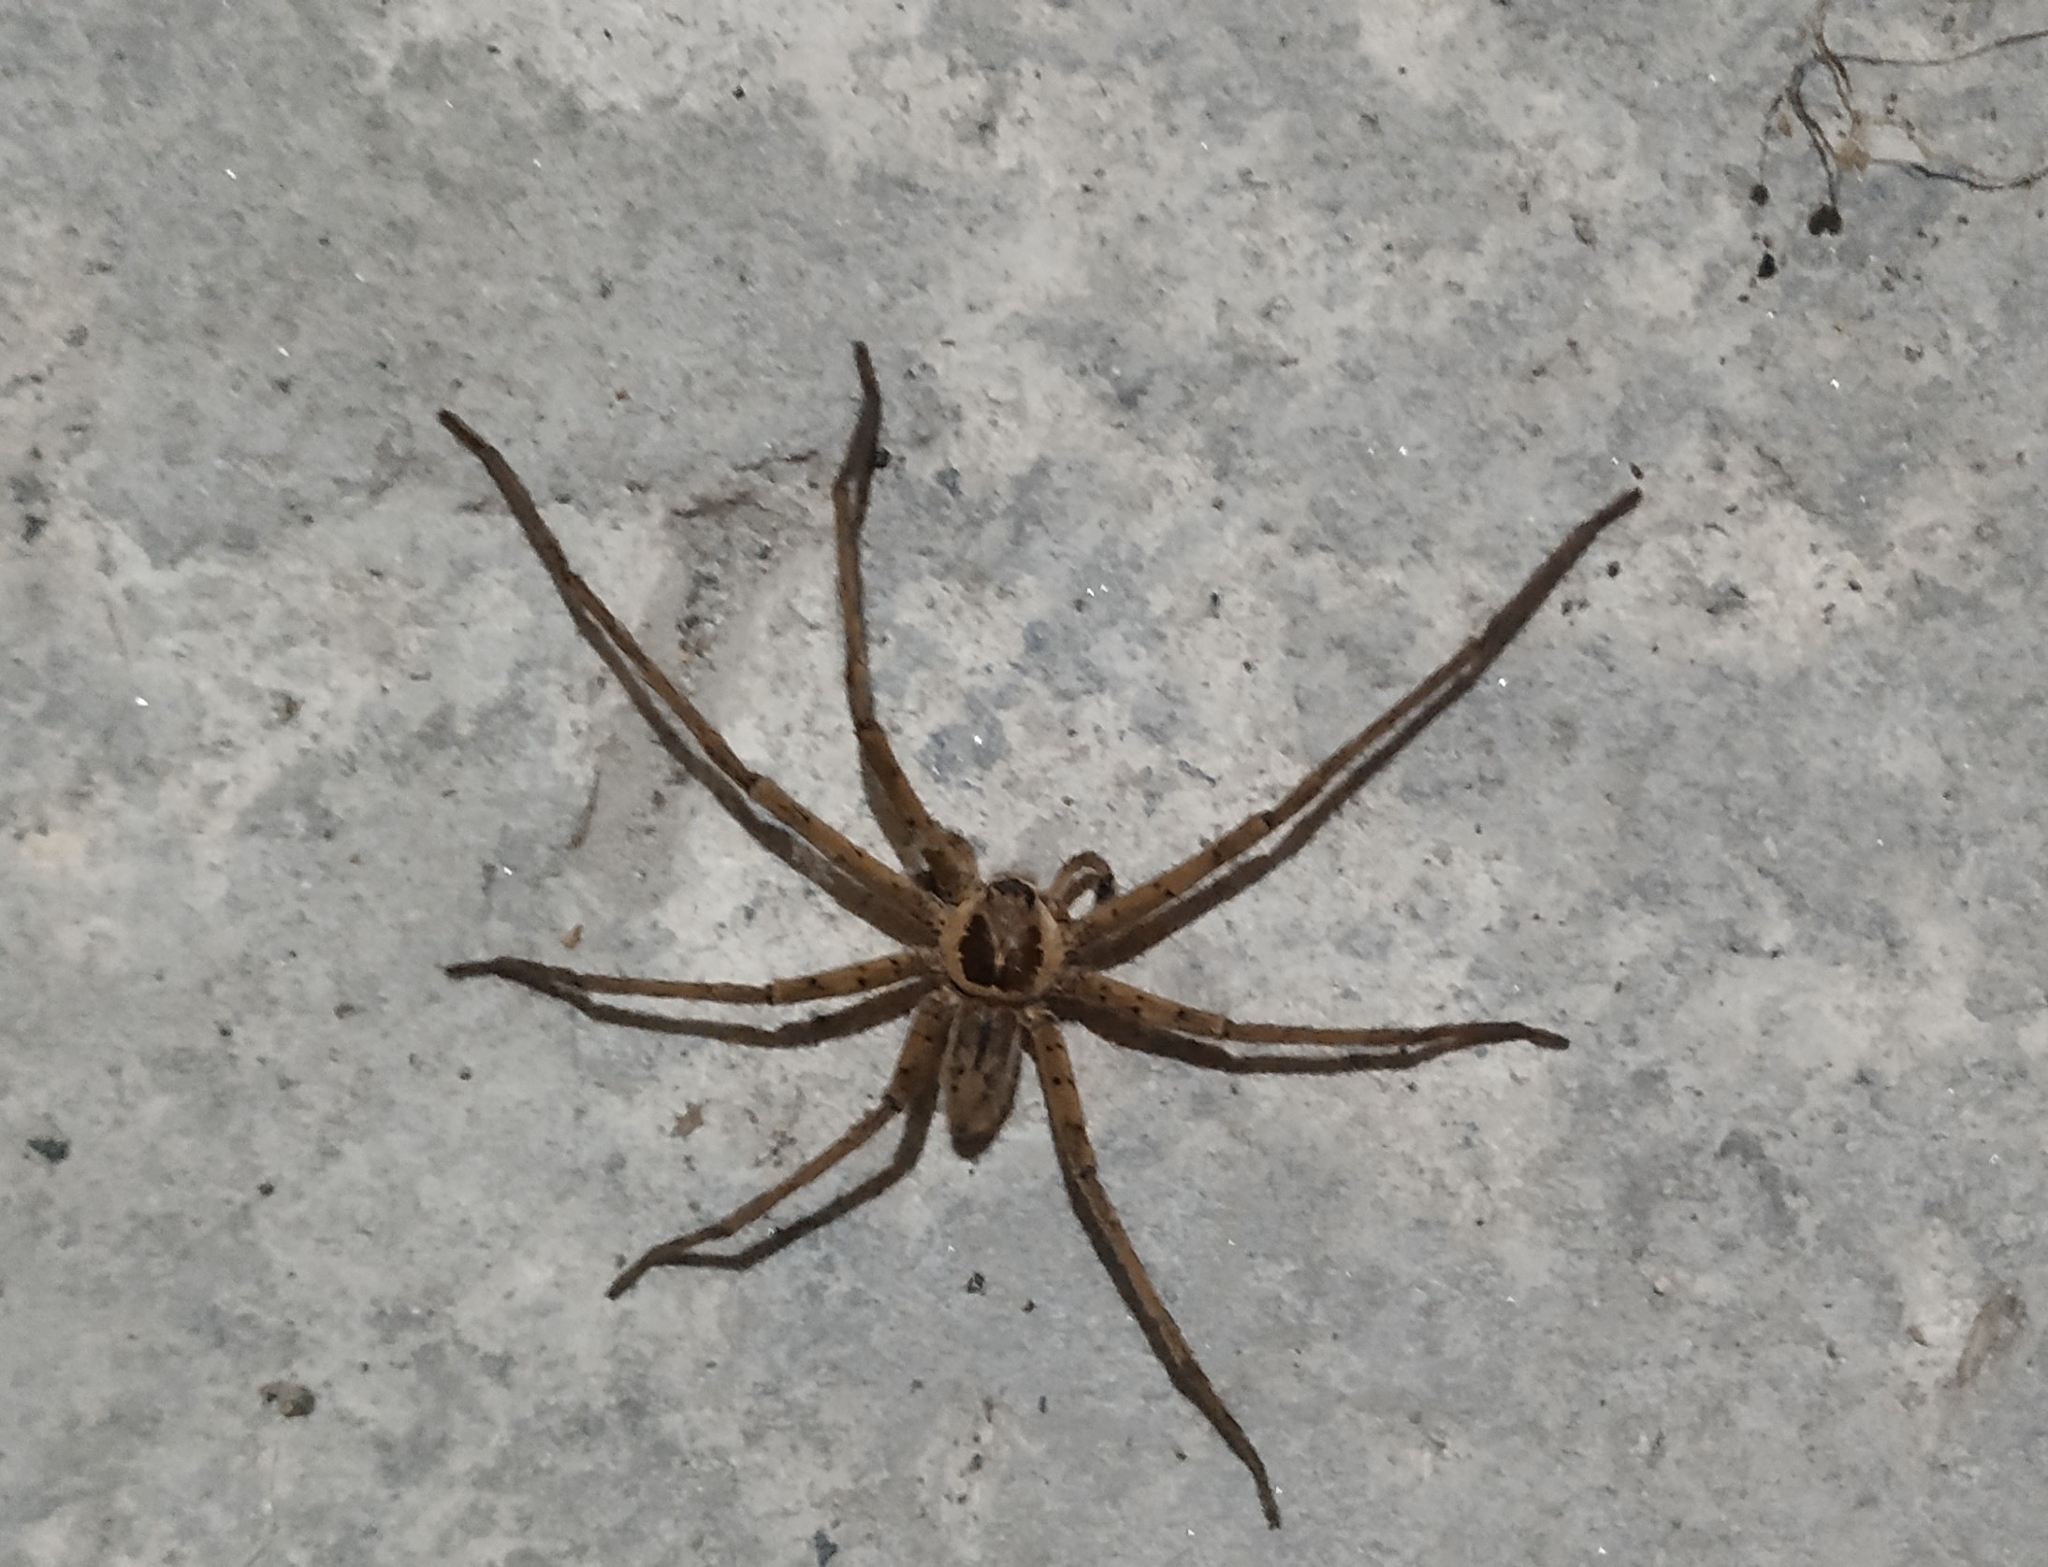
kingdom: Animalia
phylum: Arthropoda
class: Arachnida
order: Araneae
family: Sparassidae
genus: Heteropoda
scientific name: Heteropoda venatoria
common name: Huntsman spider
